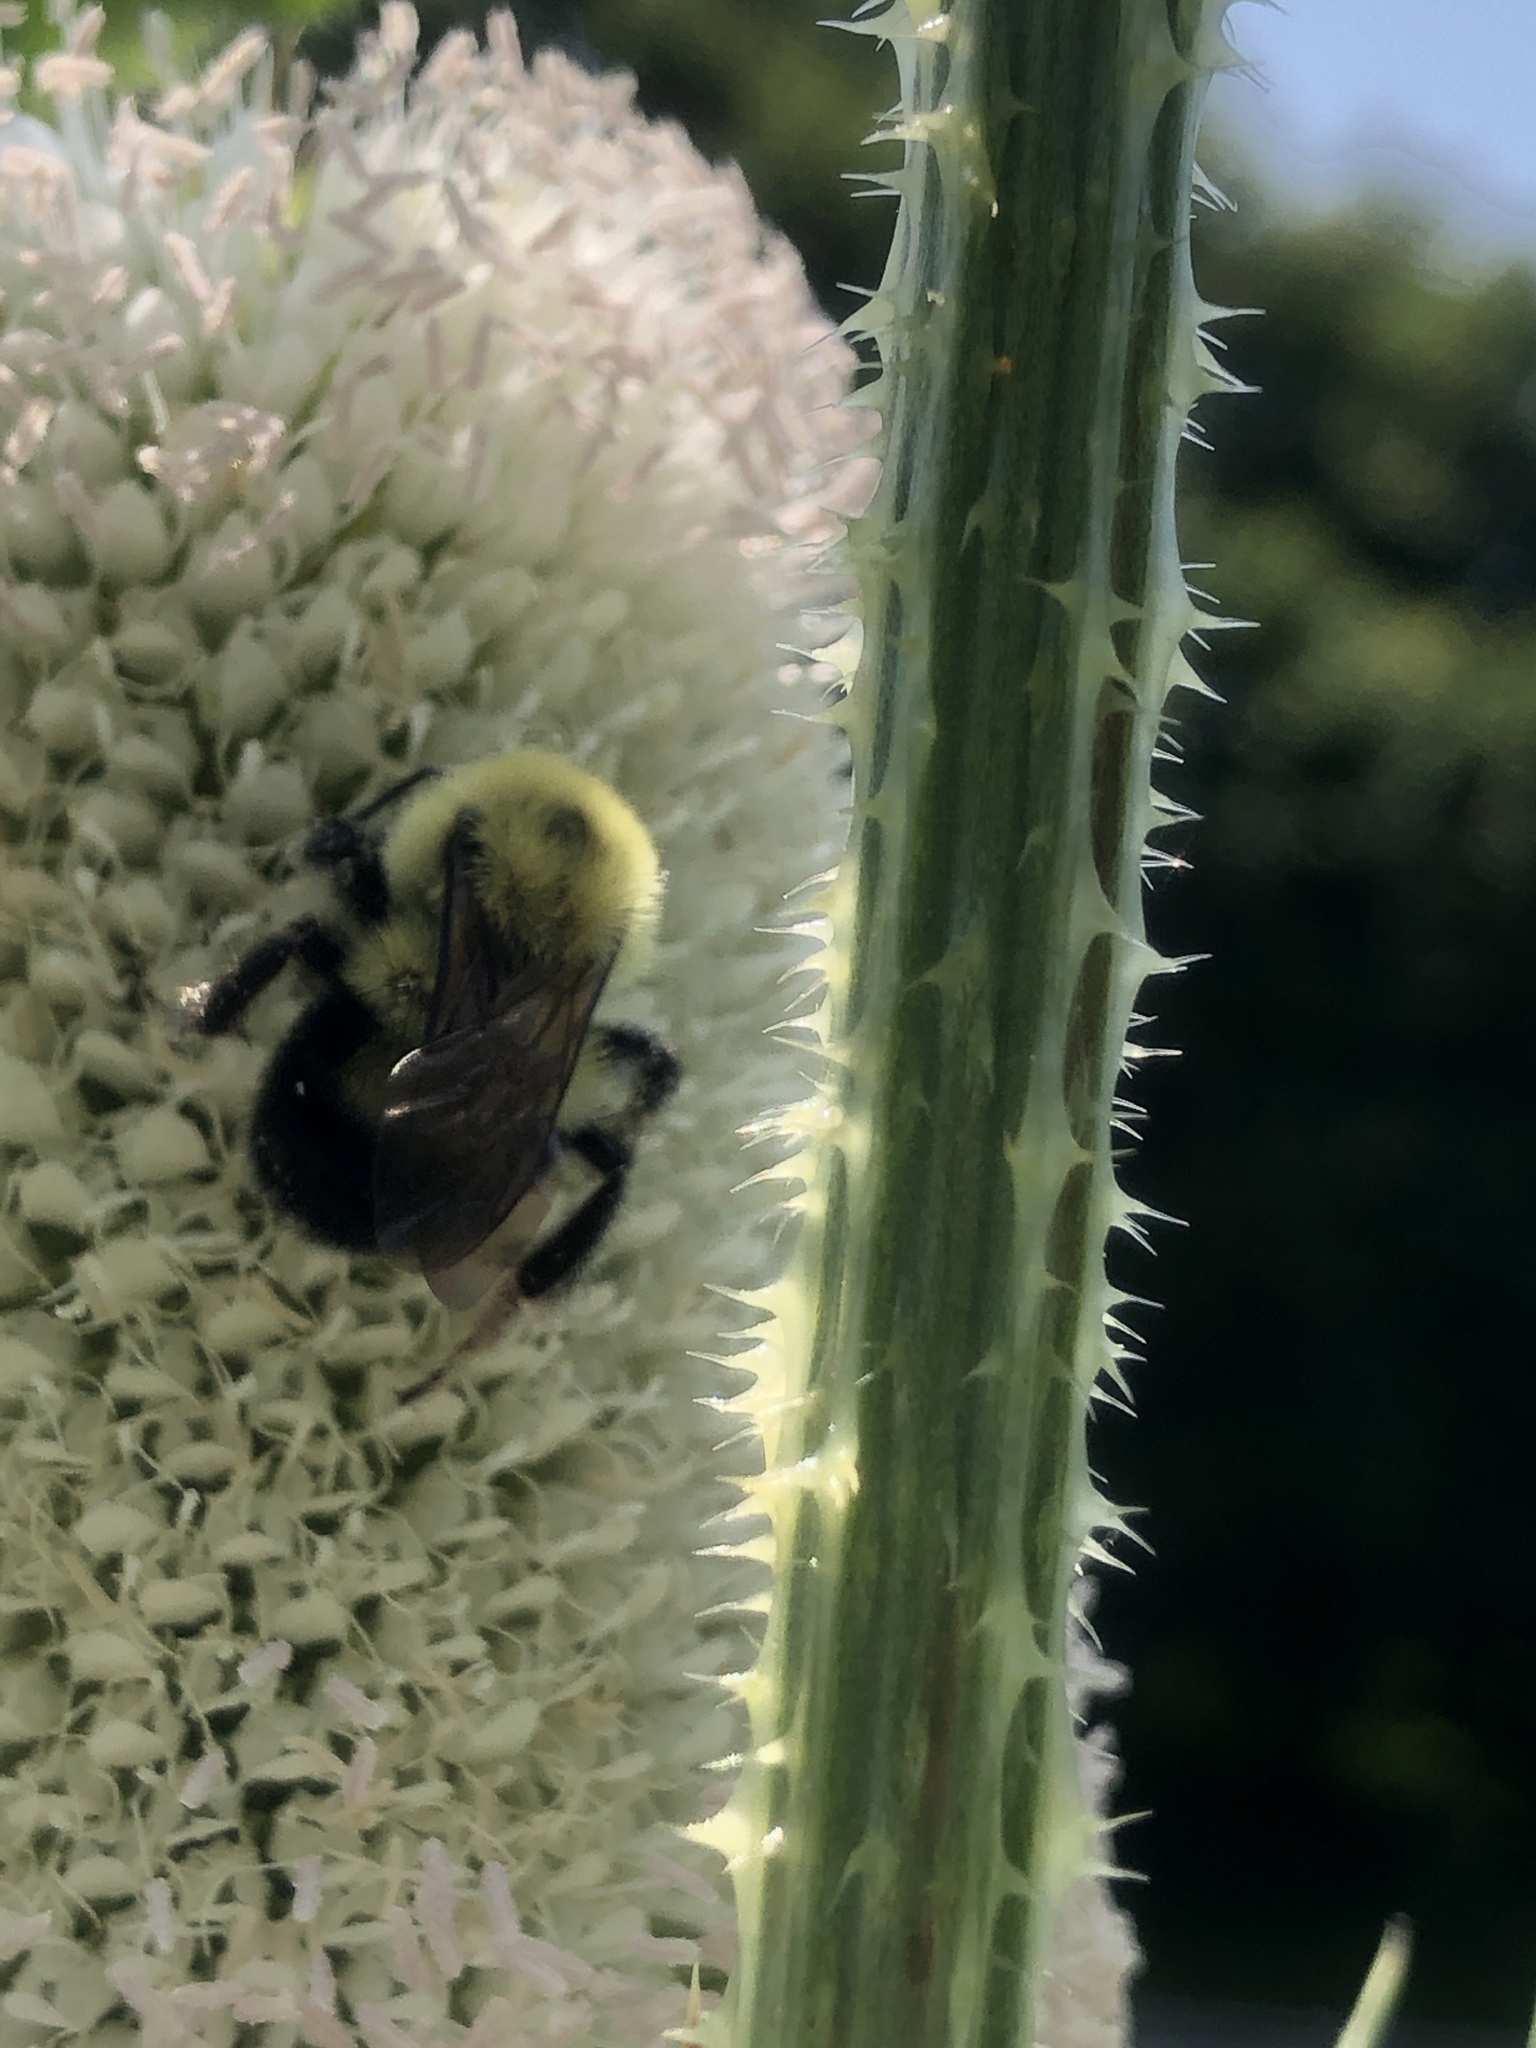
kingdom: Animalia
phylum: Arthropoda
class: Insecta
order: Hymenoptera
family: Apidae
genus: Bombus
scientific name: Bombus bimaculatus
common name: Two-spotted bumble bee
